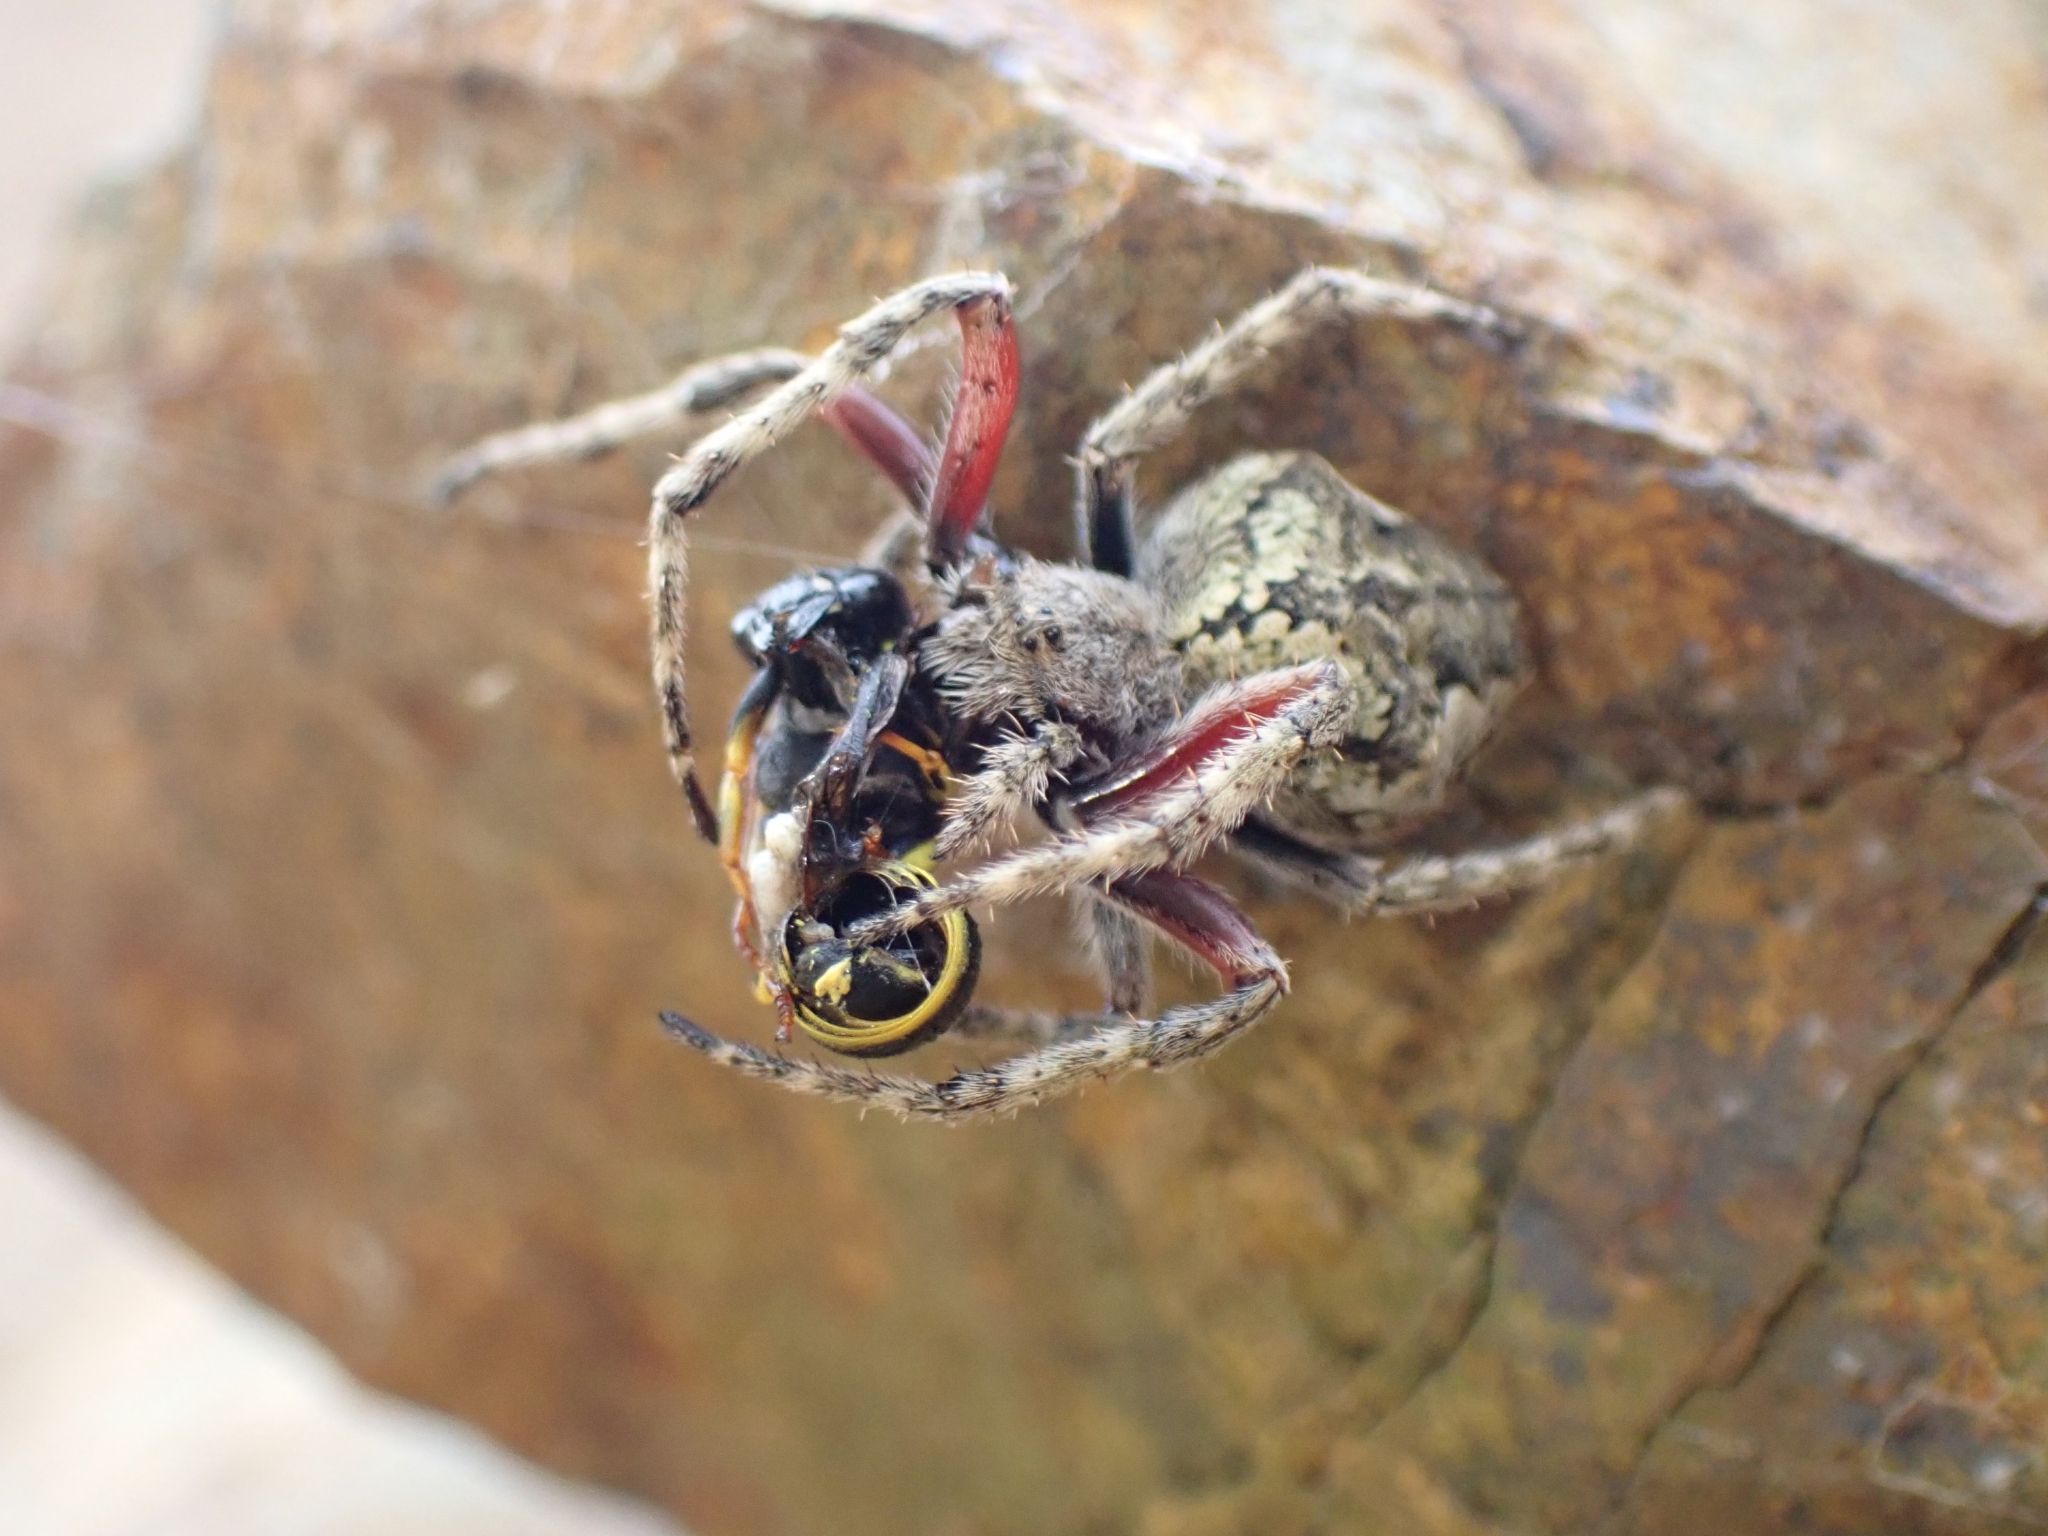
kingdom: Animalia
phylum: Arthropoda
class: Arachnida
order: Araneae
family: Araneidae
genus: Eriophora
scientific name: Eriophora pustulosa
